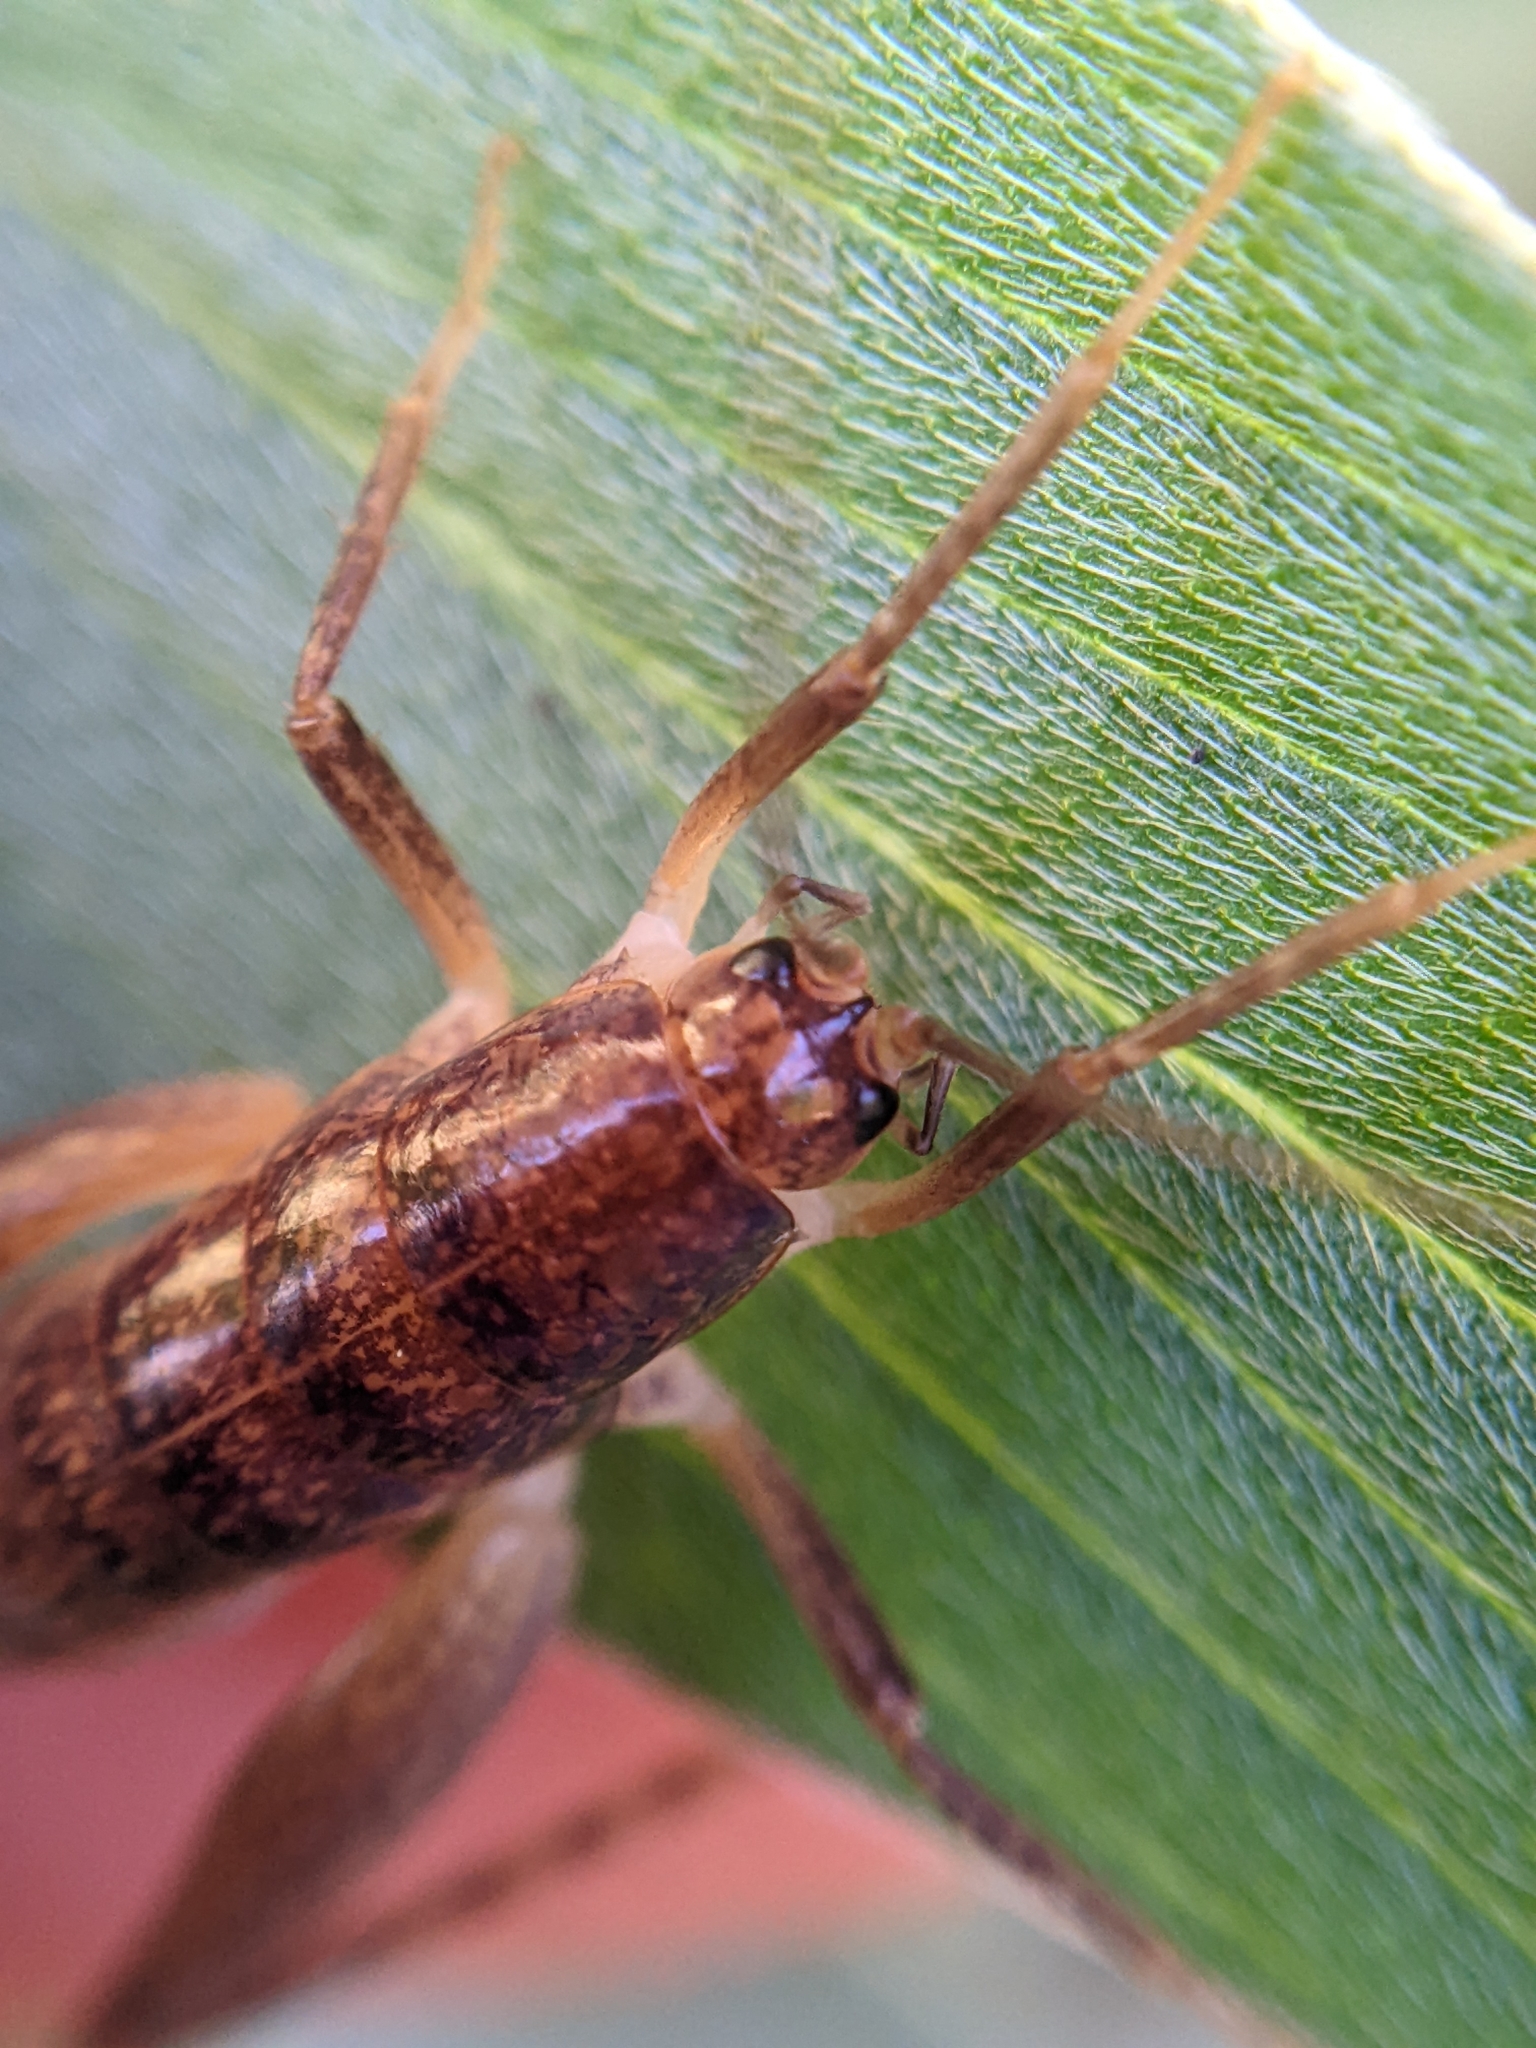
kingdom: Animalia
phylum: Arthropoda
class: Insecta
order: Orthoptera
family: Rhaphidophoridae
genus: Pristoceuthophilus
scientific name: Pristoceuthophilus
